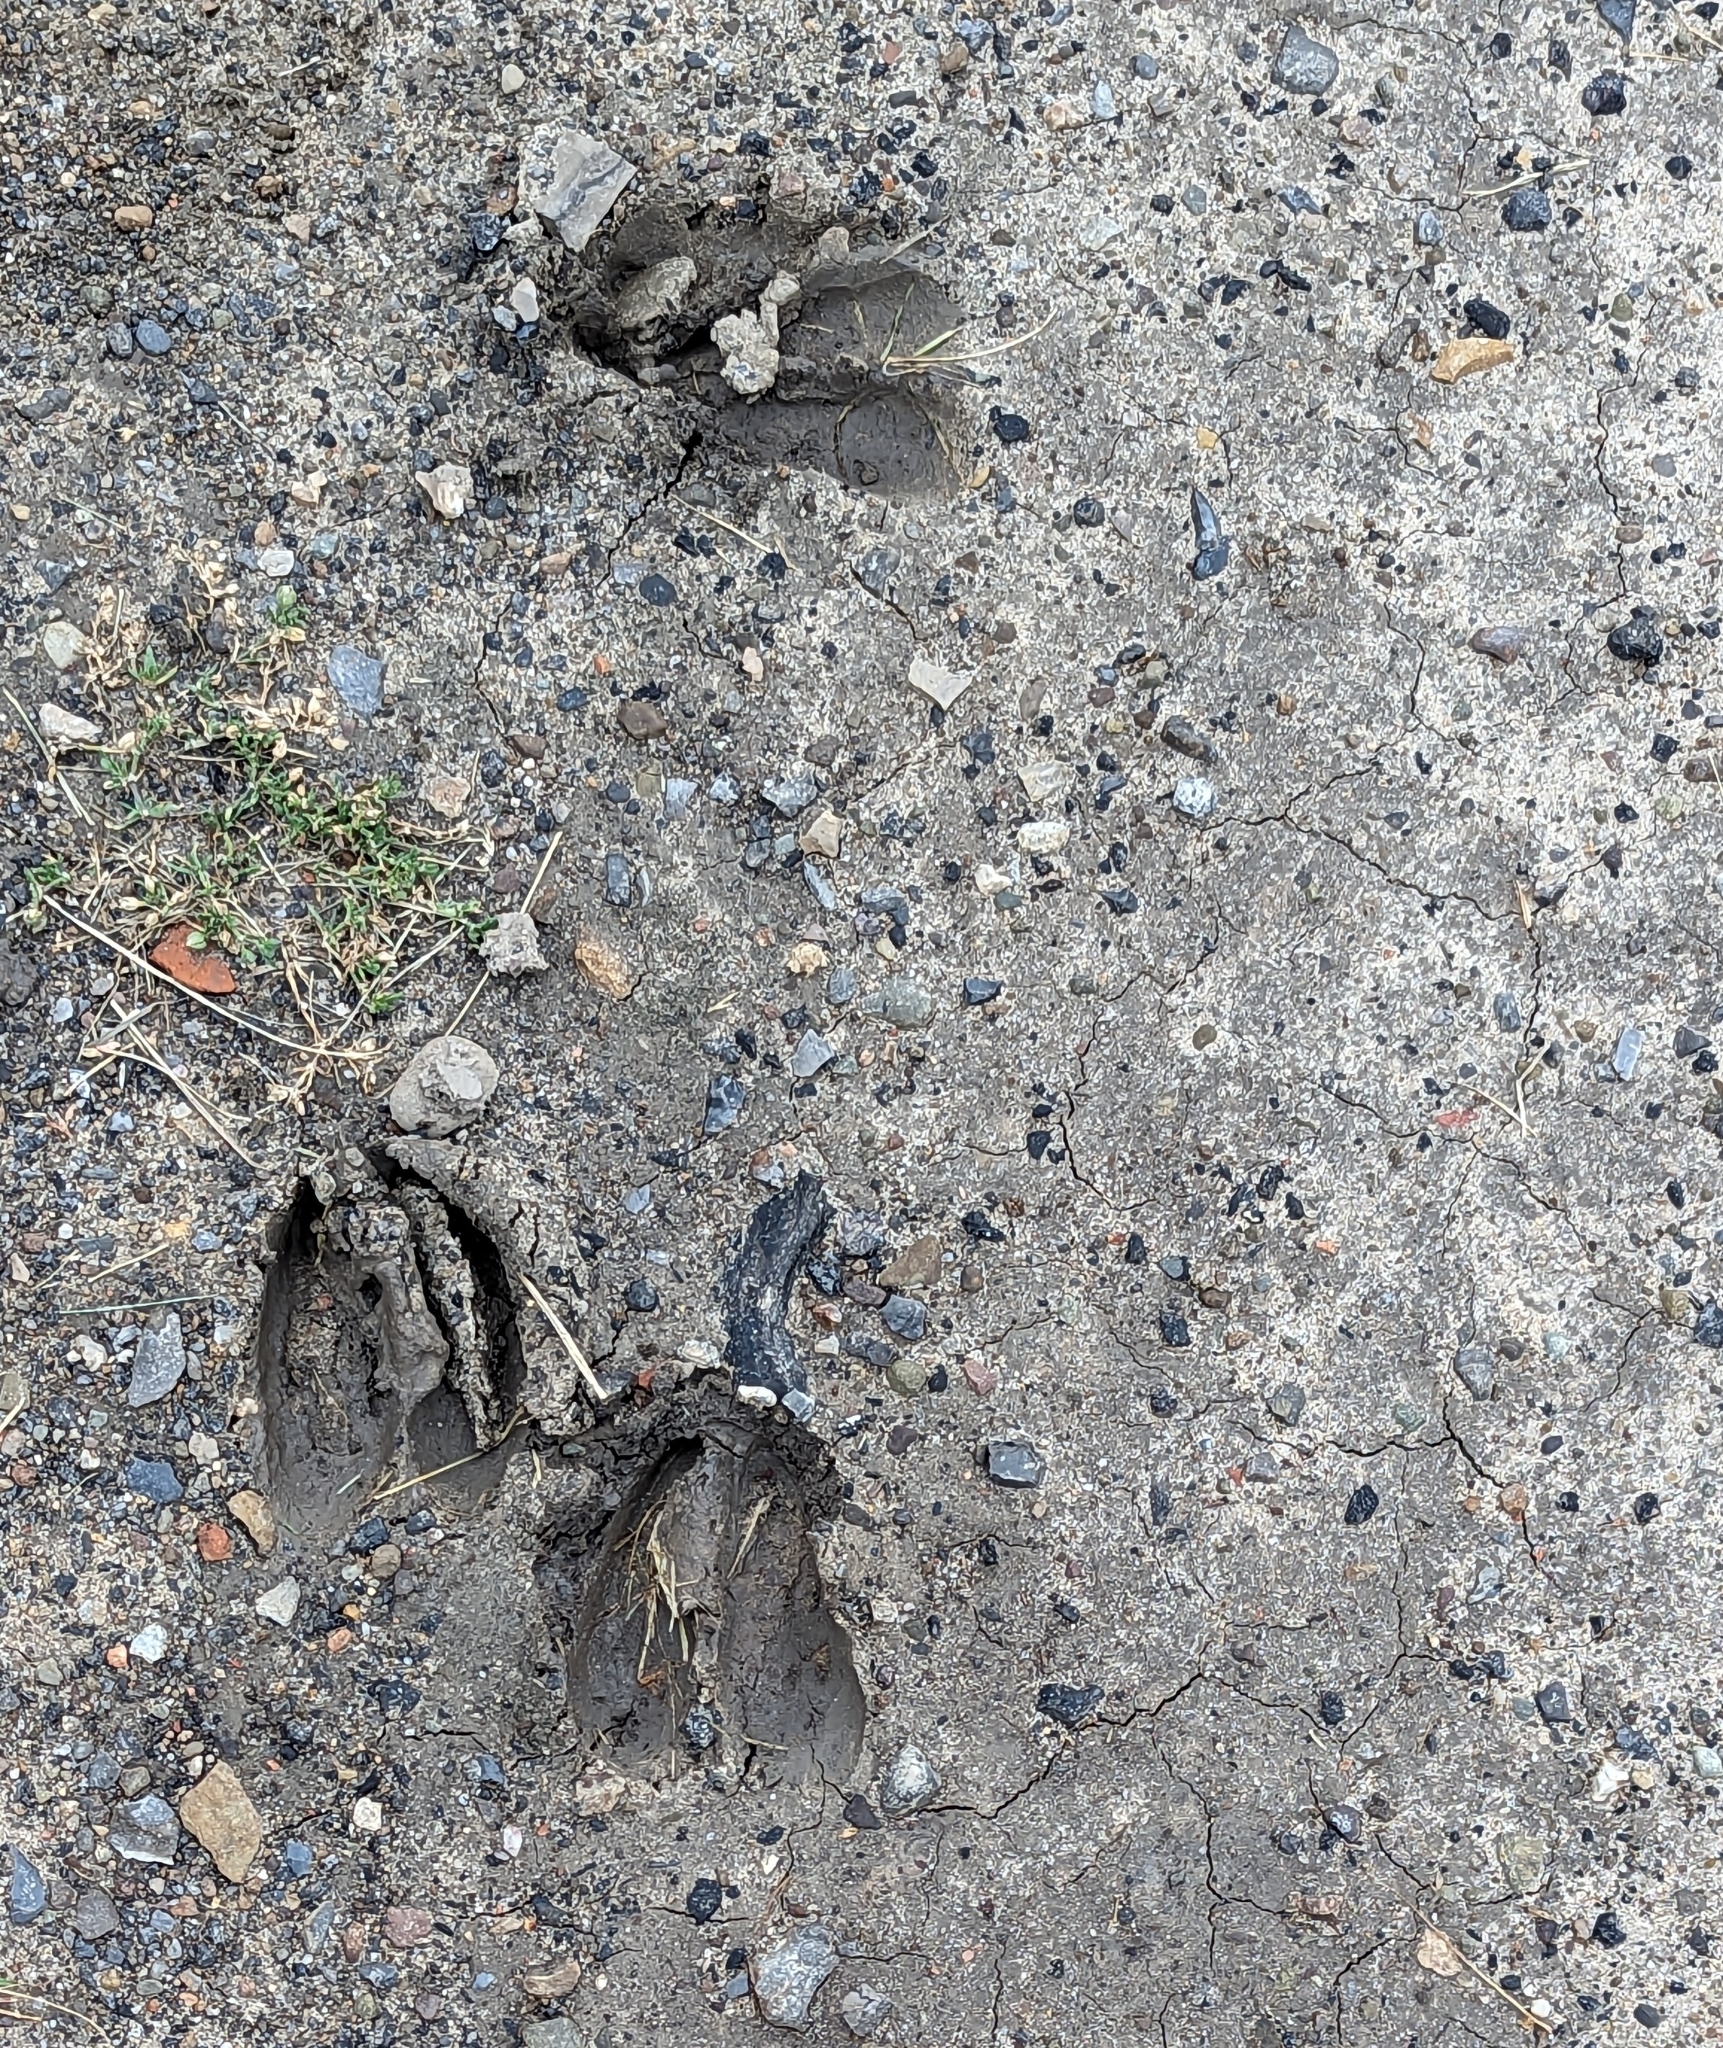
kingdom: Animalia
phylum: Chordata
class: Mammalia
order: Artiodactyla
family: Cervidae
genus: Odocoileus
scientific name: Odocoileus virginianus
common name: White-tailed deer
